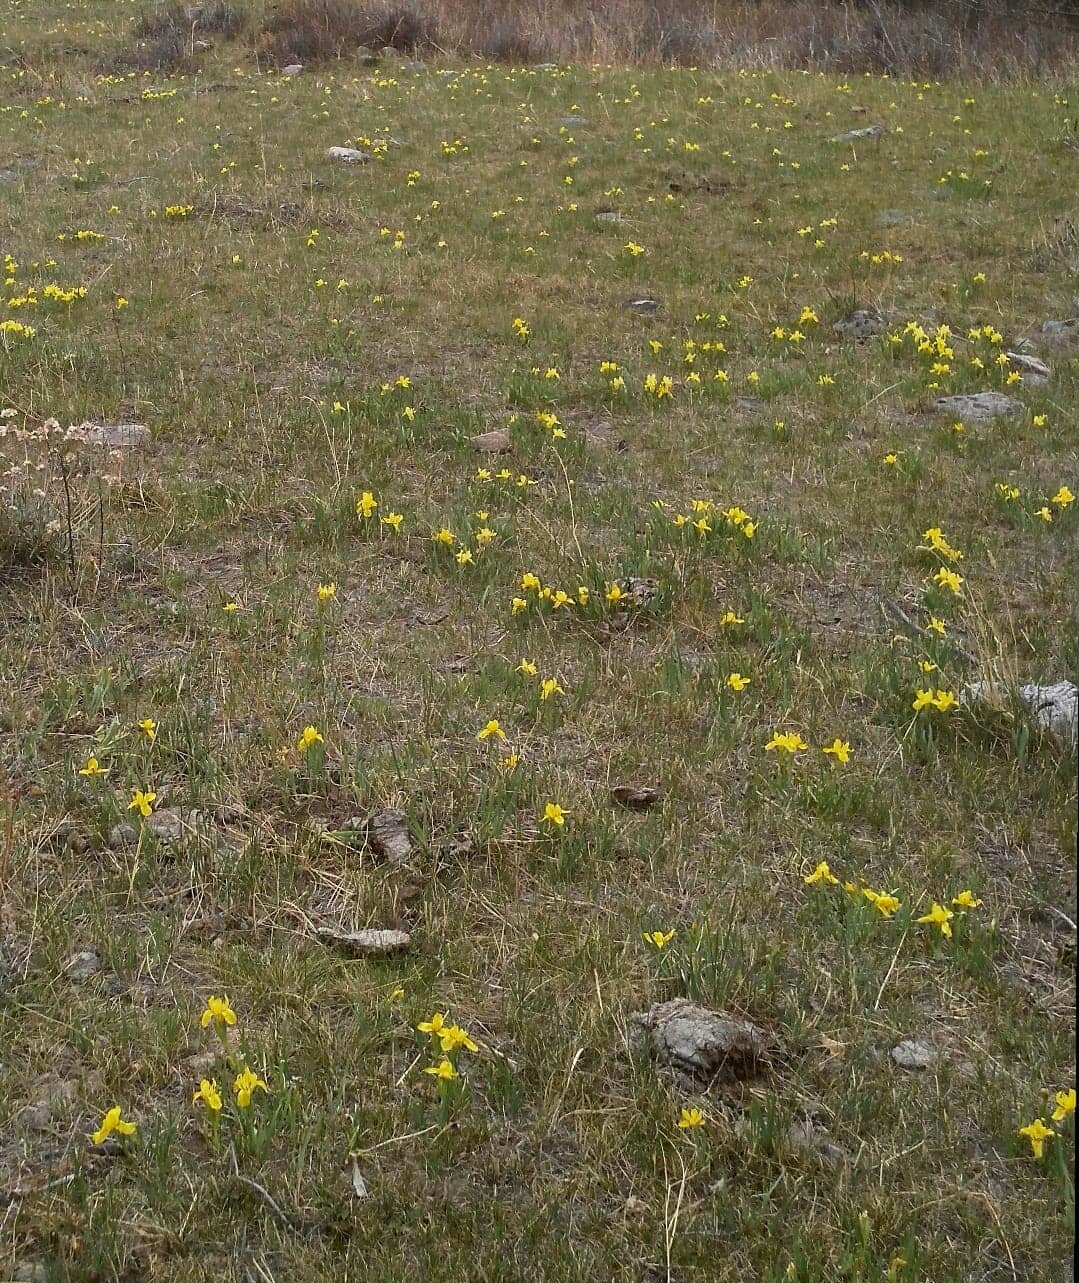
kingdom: Plantae
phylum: Tracheophyta
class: Liliopsida
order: Asparagales
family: Iridaceae
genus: Iris
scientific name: Iris humilis
